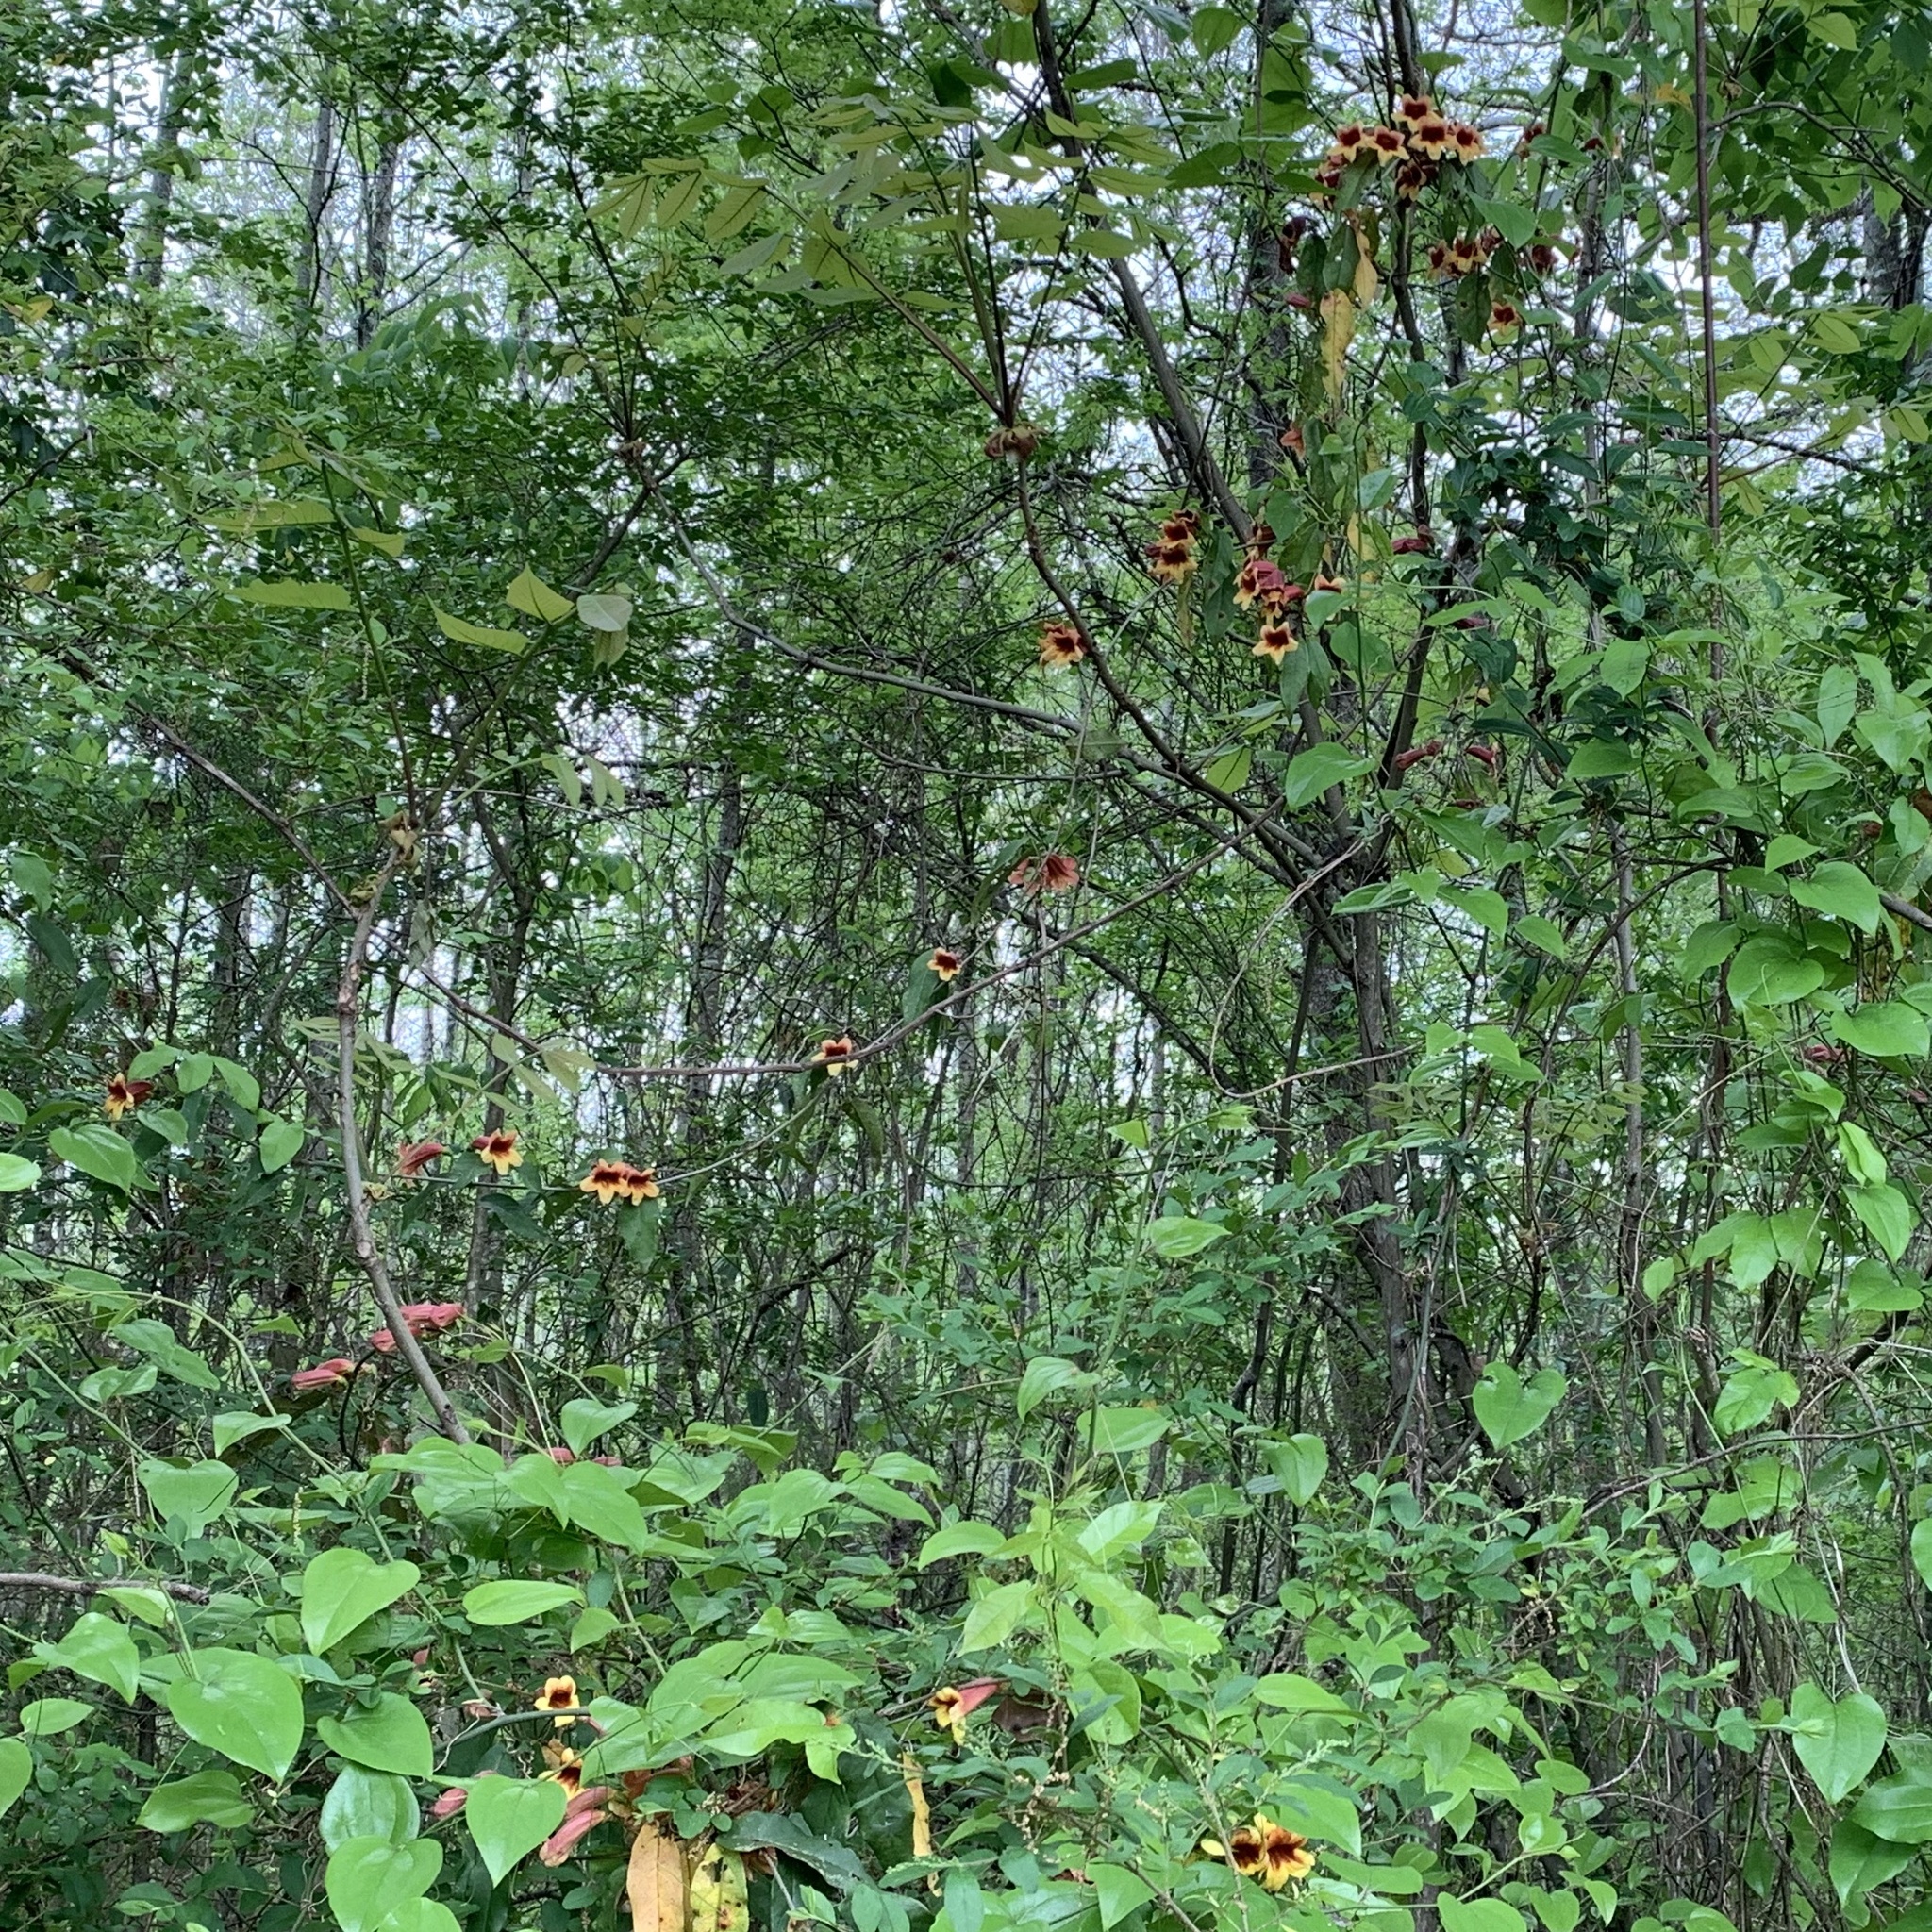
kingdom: Plantae
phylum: Tracheophyta
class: Magnoliopsida
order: Lamiales
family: Bignoniaceae
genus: Bignonia
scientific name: Bignonia capreolata
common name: Crossvine
